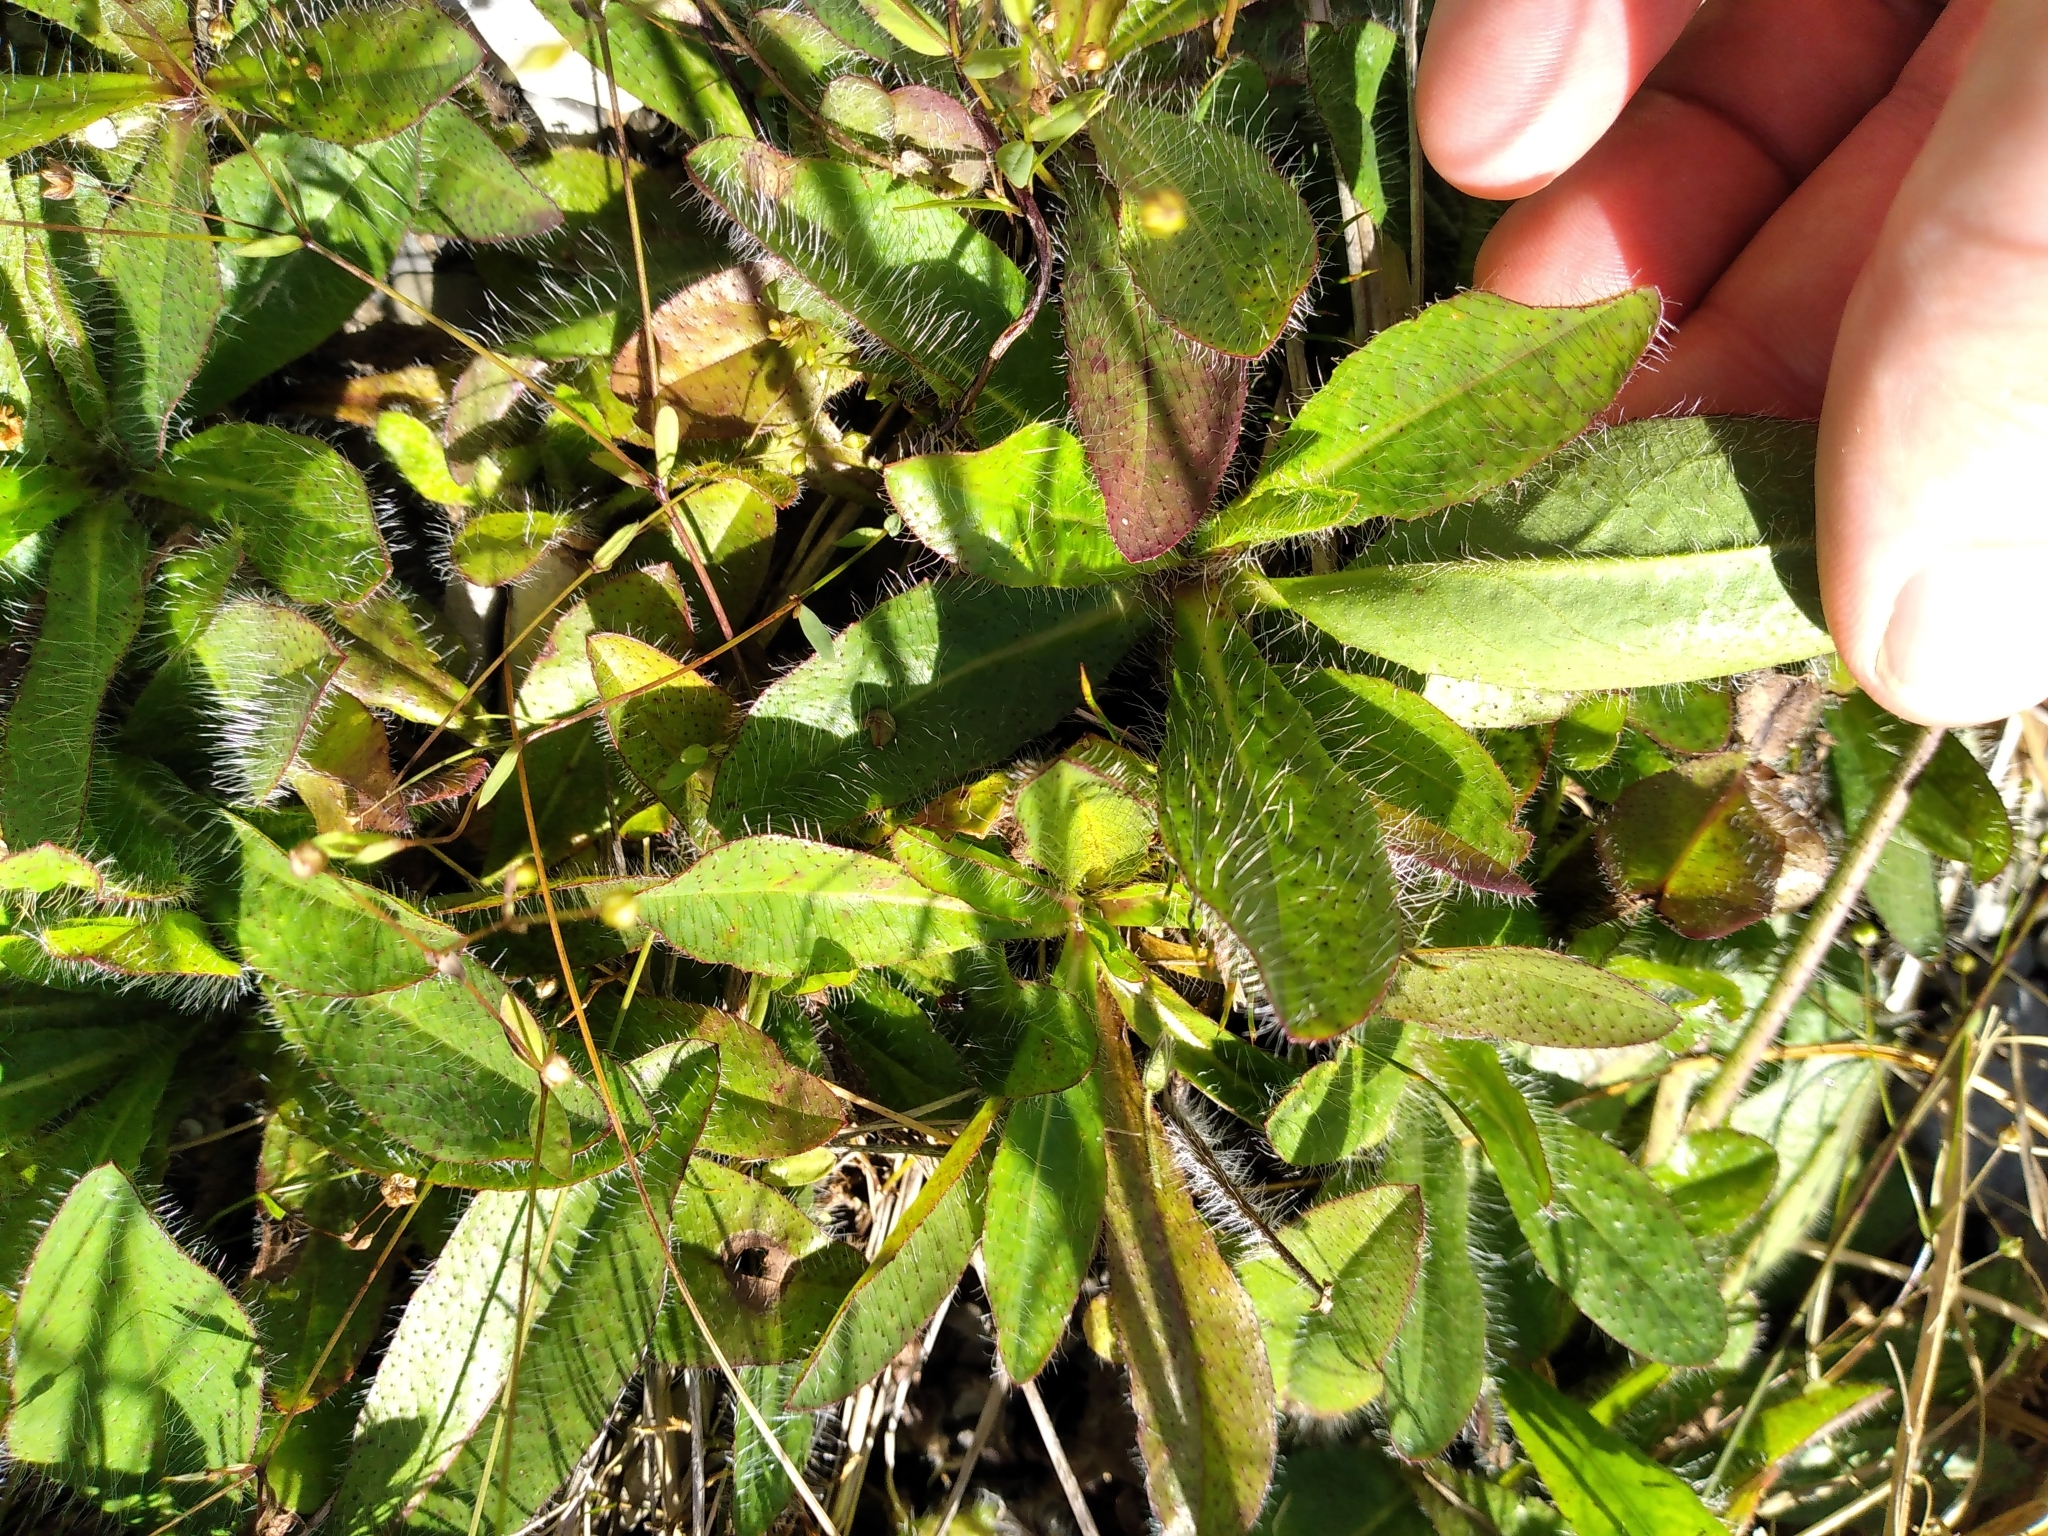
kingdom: Plantae
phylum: Tracheophyta
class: Magnoliopsida
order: Asterales
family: Asteraceae
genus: Pilosella
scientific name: Pilosella aurantiaca
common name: Fox-and-cubs
